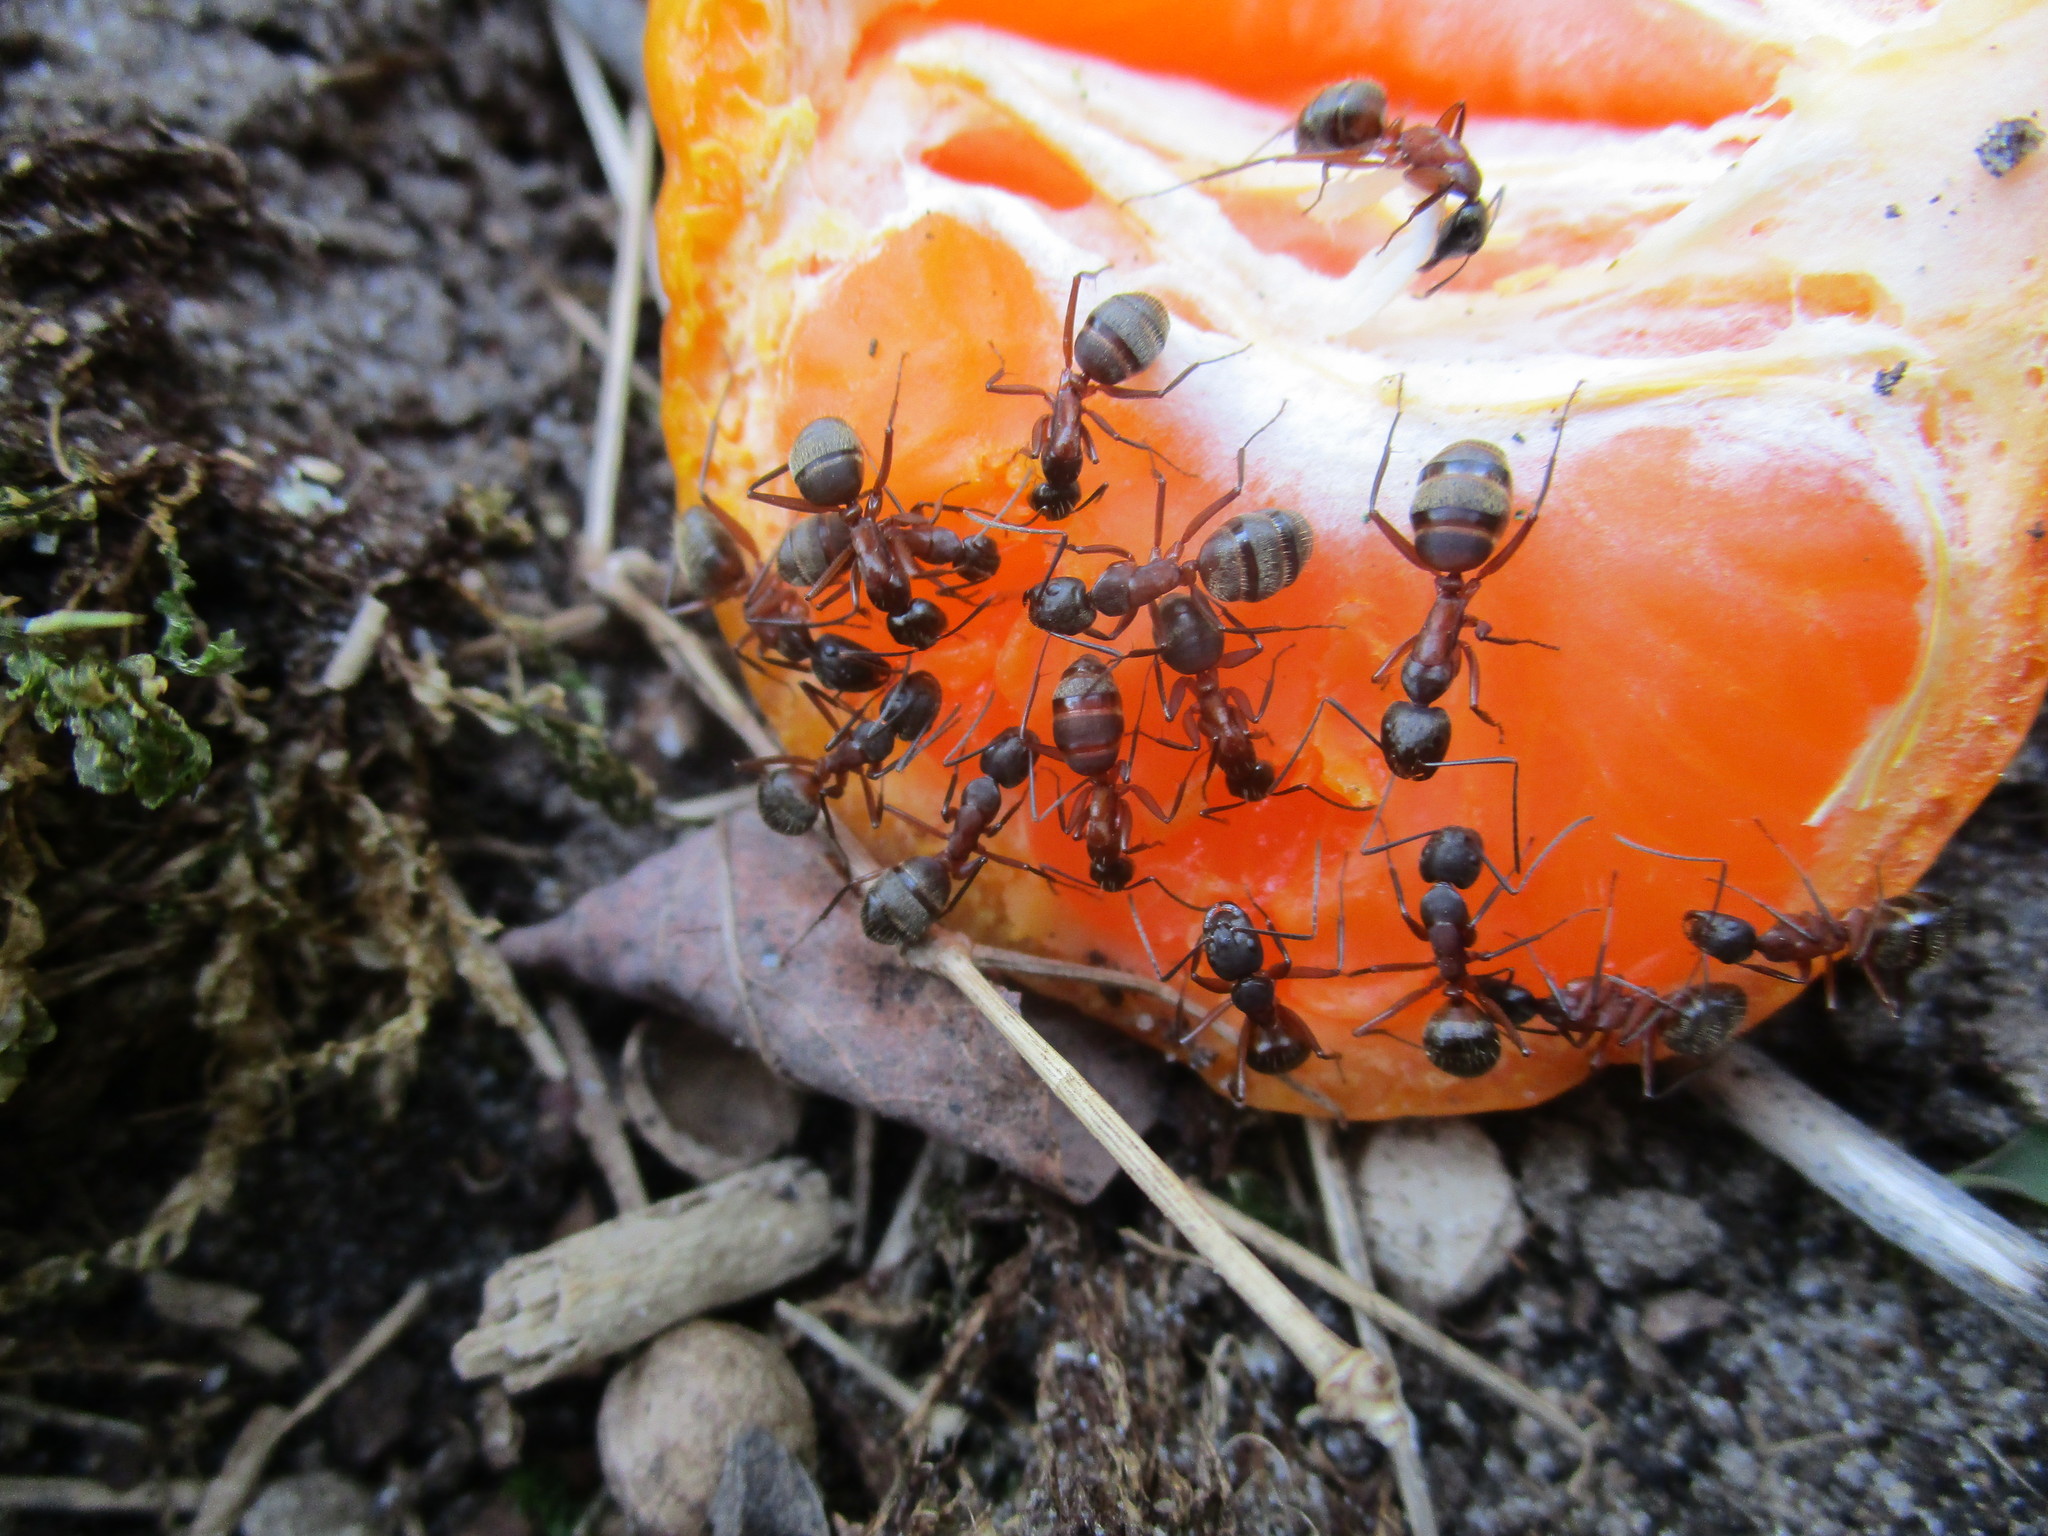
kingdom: Animalia
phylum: Arthropoda
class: Insecta
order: Hymenoptera
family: Formicidae
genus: Camponotus
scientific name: Camponotus chromaiodes
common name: Red carpenter ant
